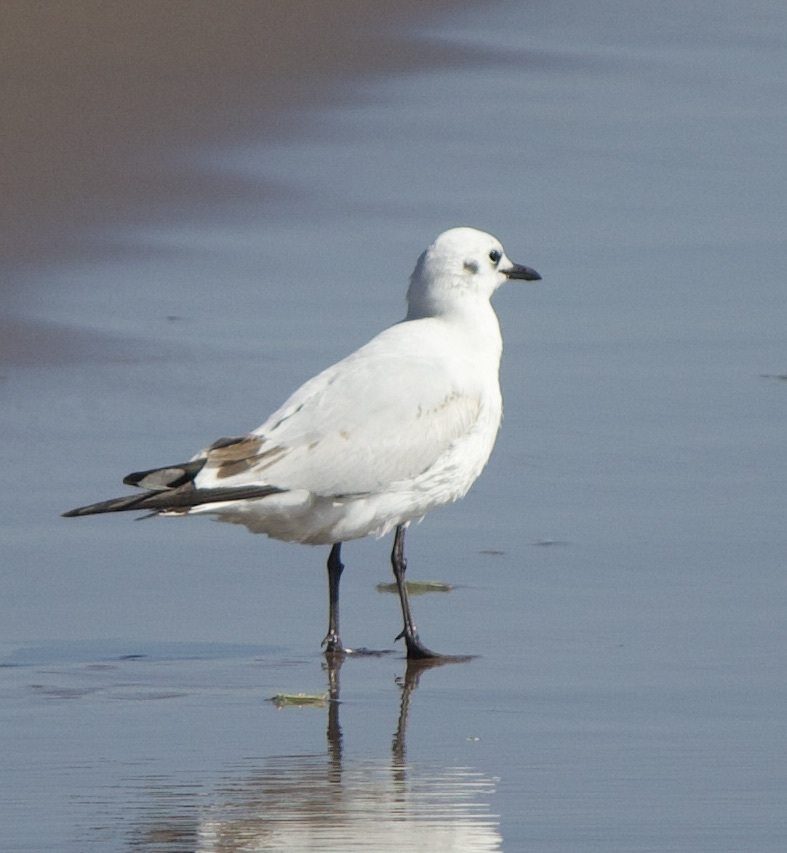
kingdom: Animalia
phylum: Chordata
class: Aves
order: Charadriiformes
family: Laridae
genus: Chroicocephalus
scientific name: Chroicocephalus serranus
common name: Andean gull
